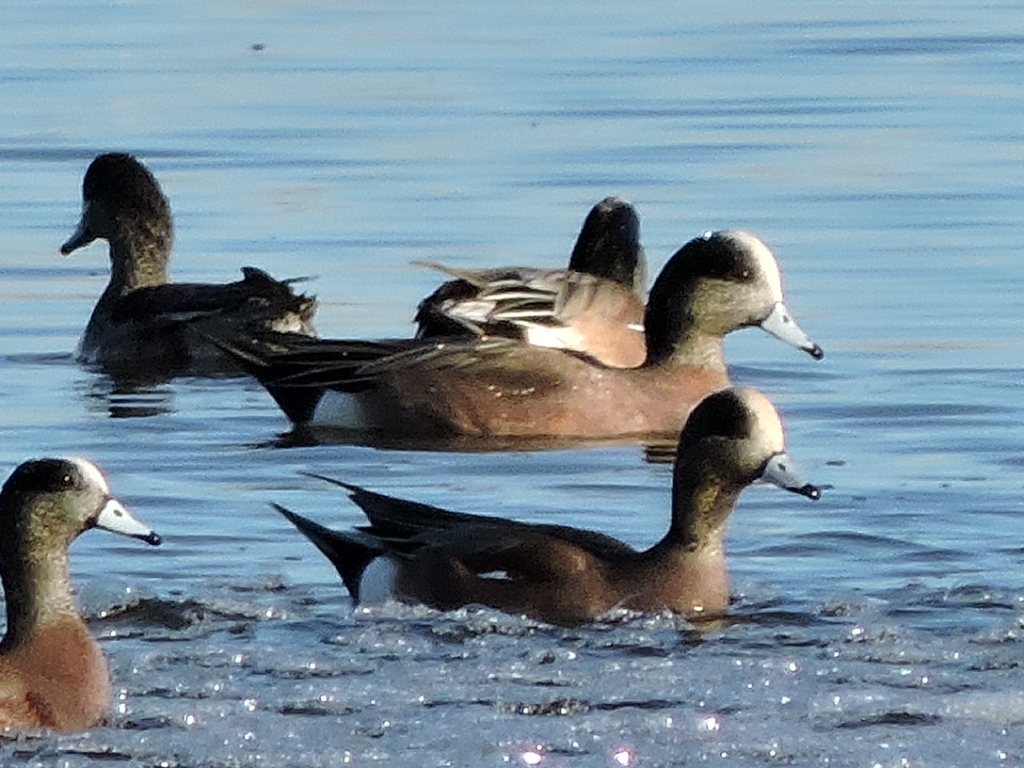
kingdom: Animalia
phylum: Chordata
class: Aves
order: Anseriformes
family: Anatidae
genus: Mareca
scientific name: Mareca americana
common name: American wigeon
